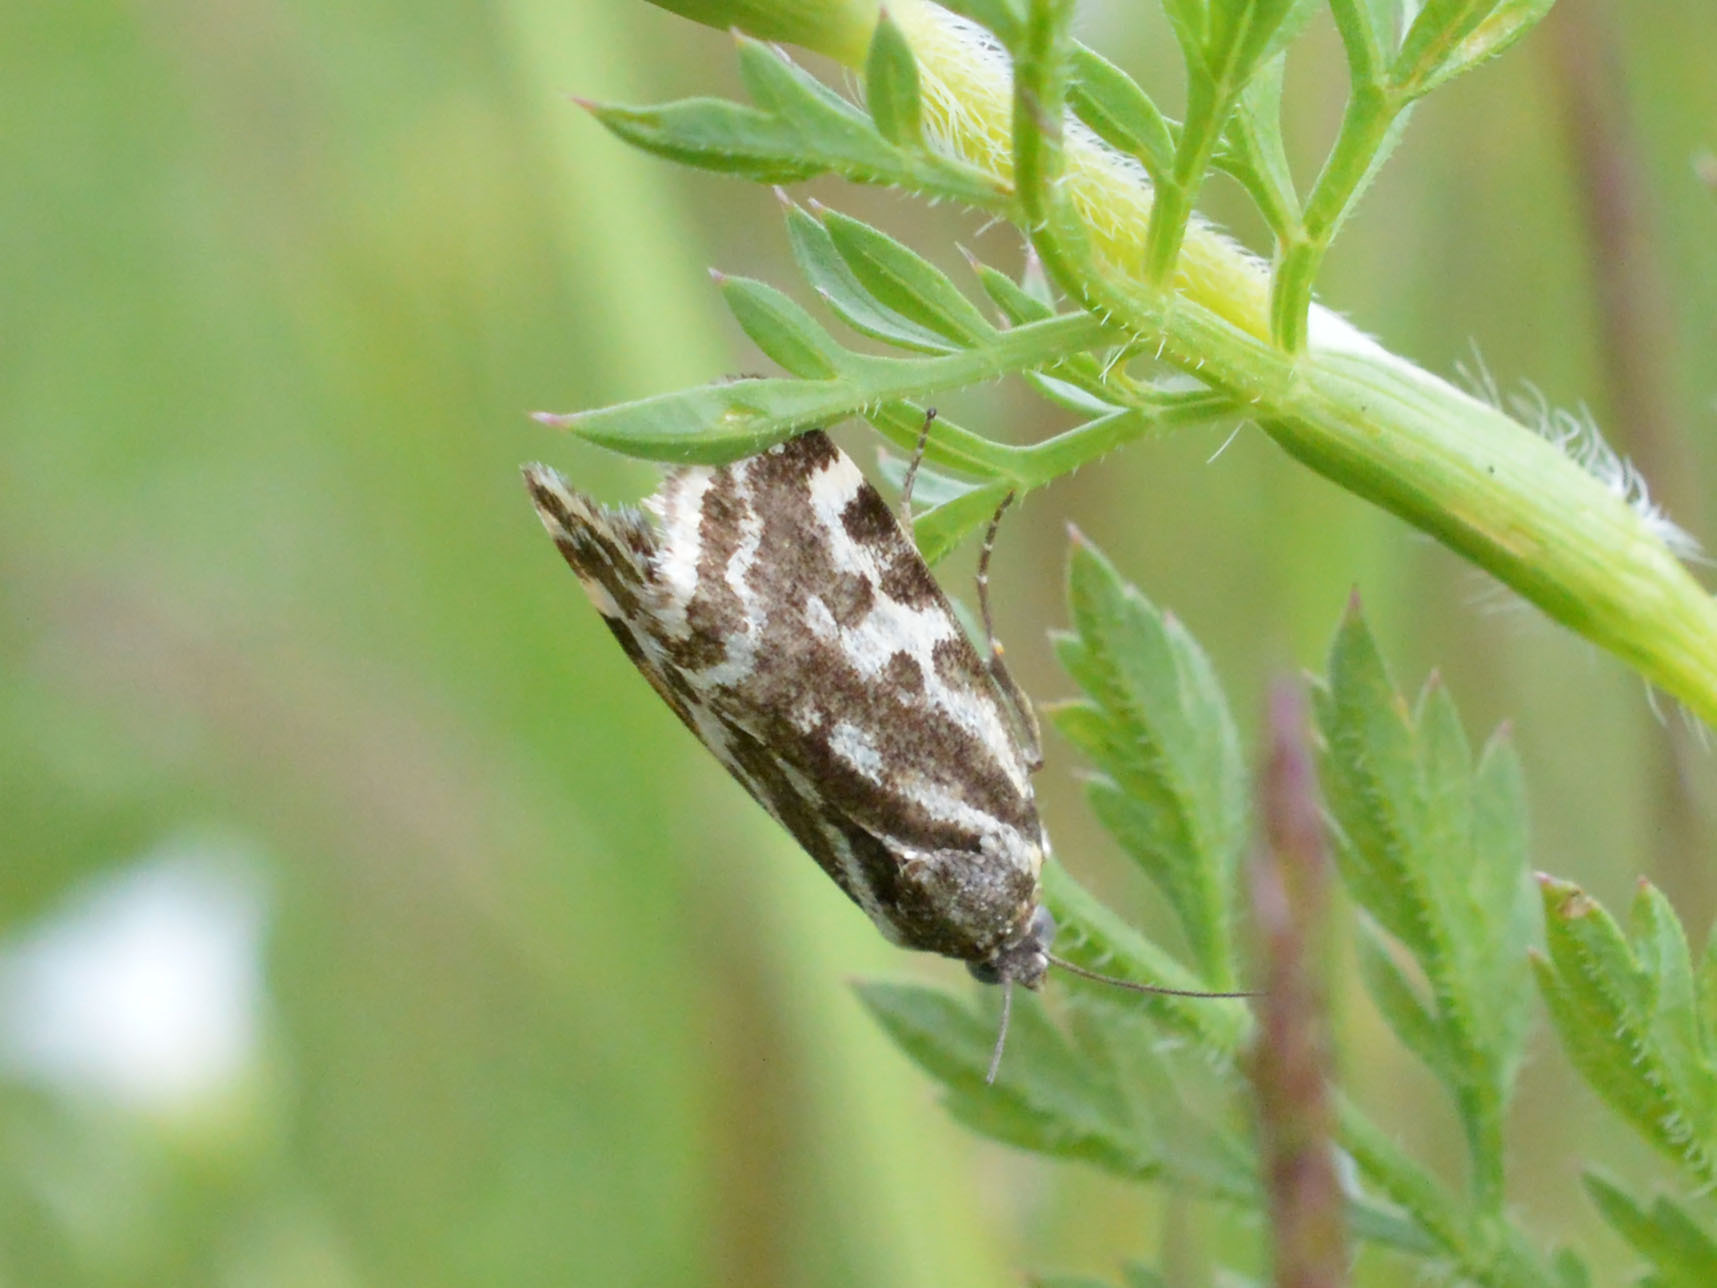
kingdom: Animalia
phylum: Arthropoda
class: Insecta
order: Lepidoptera
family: Noctuidae
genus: Acontia
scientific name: Acontia trabealis
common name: Spotted sulphur
